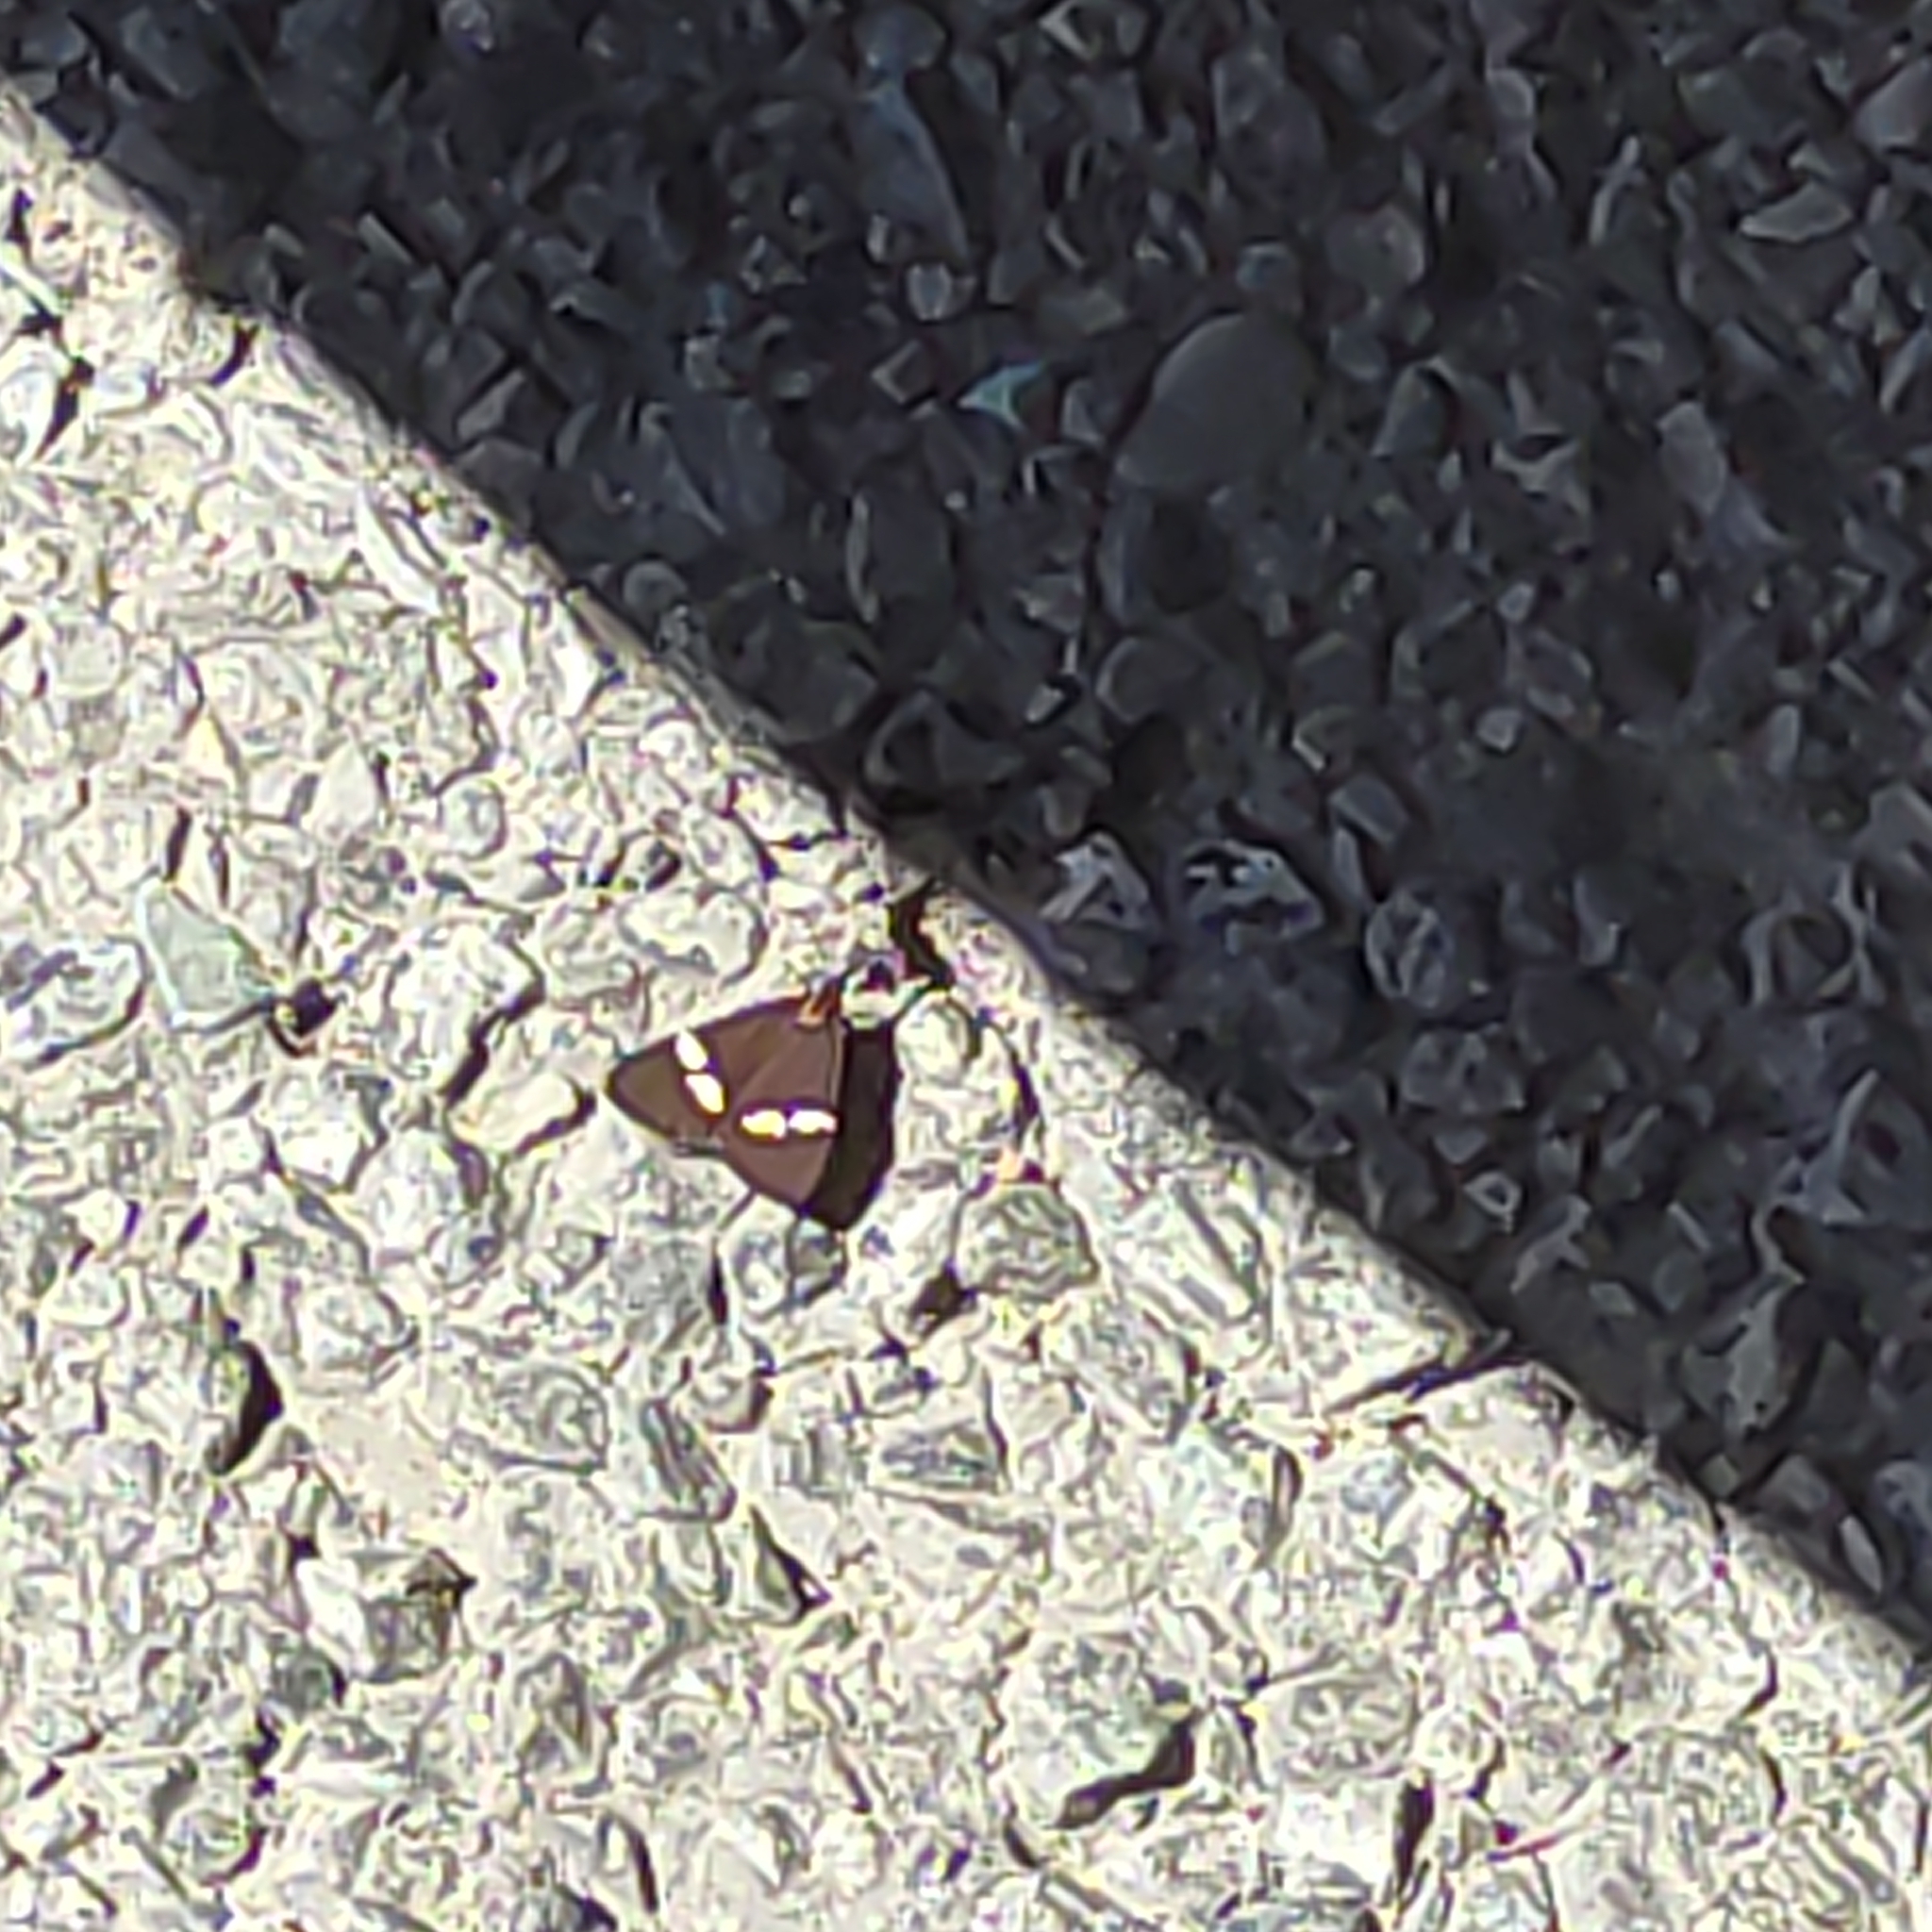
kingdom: Animalia
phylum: Arthropoda
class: Insecta
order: Lepidoptera
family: Erebidae
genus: Nyctemera
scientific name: Nyctemera annulatum
